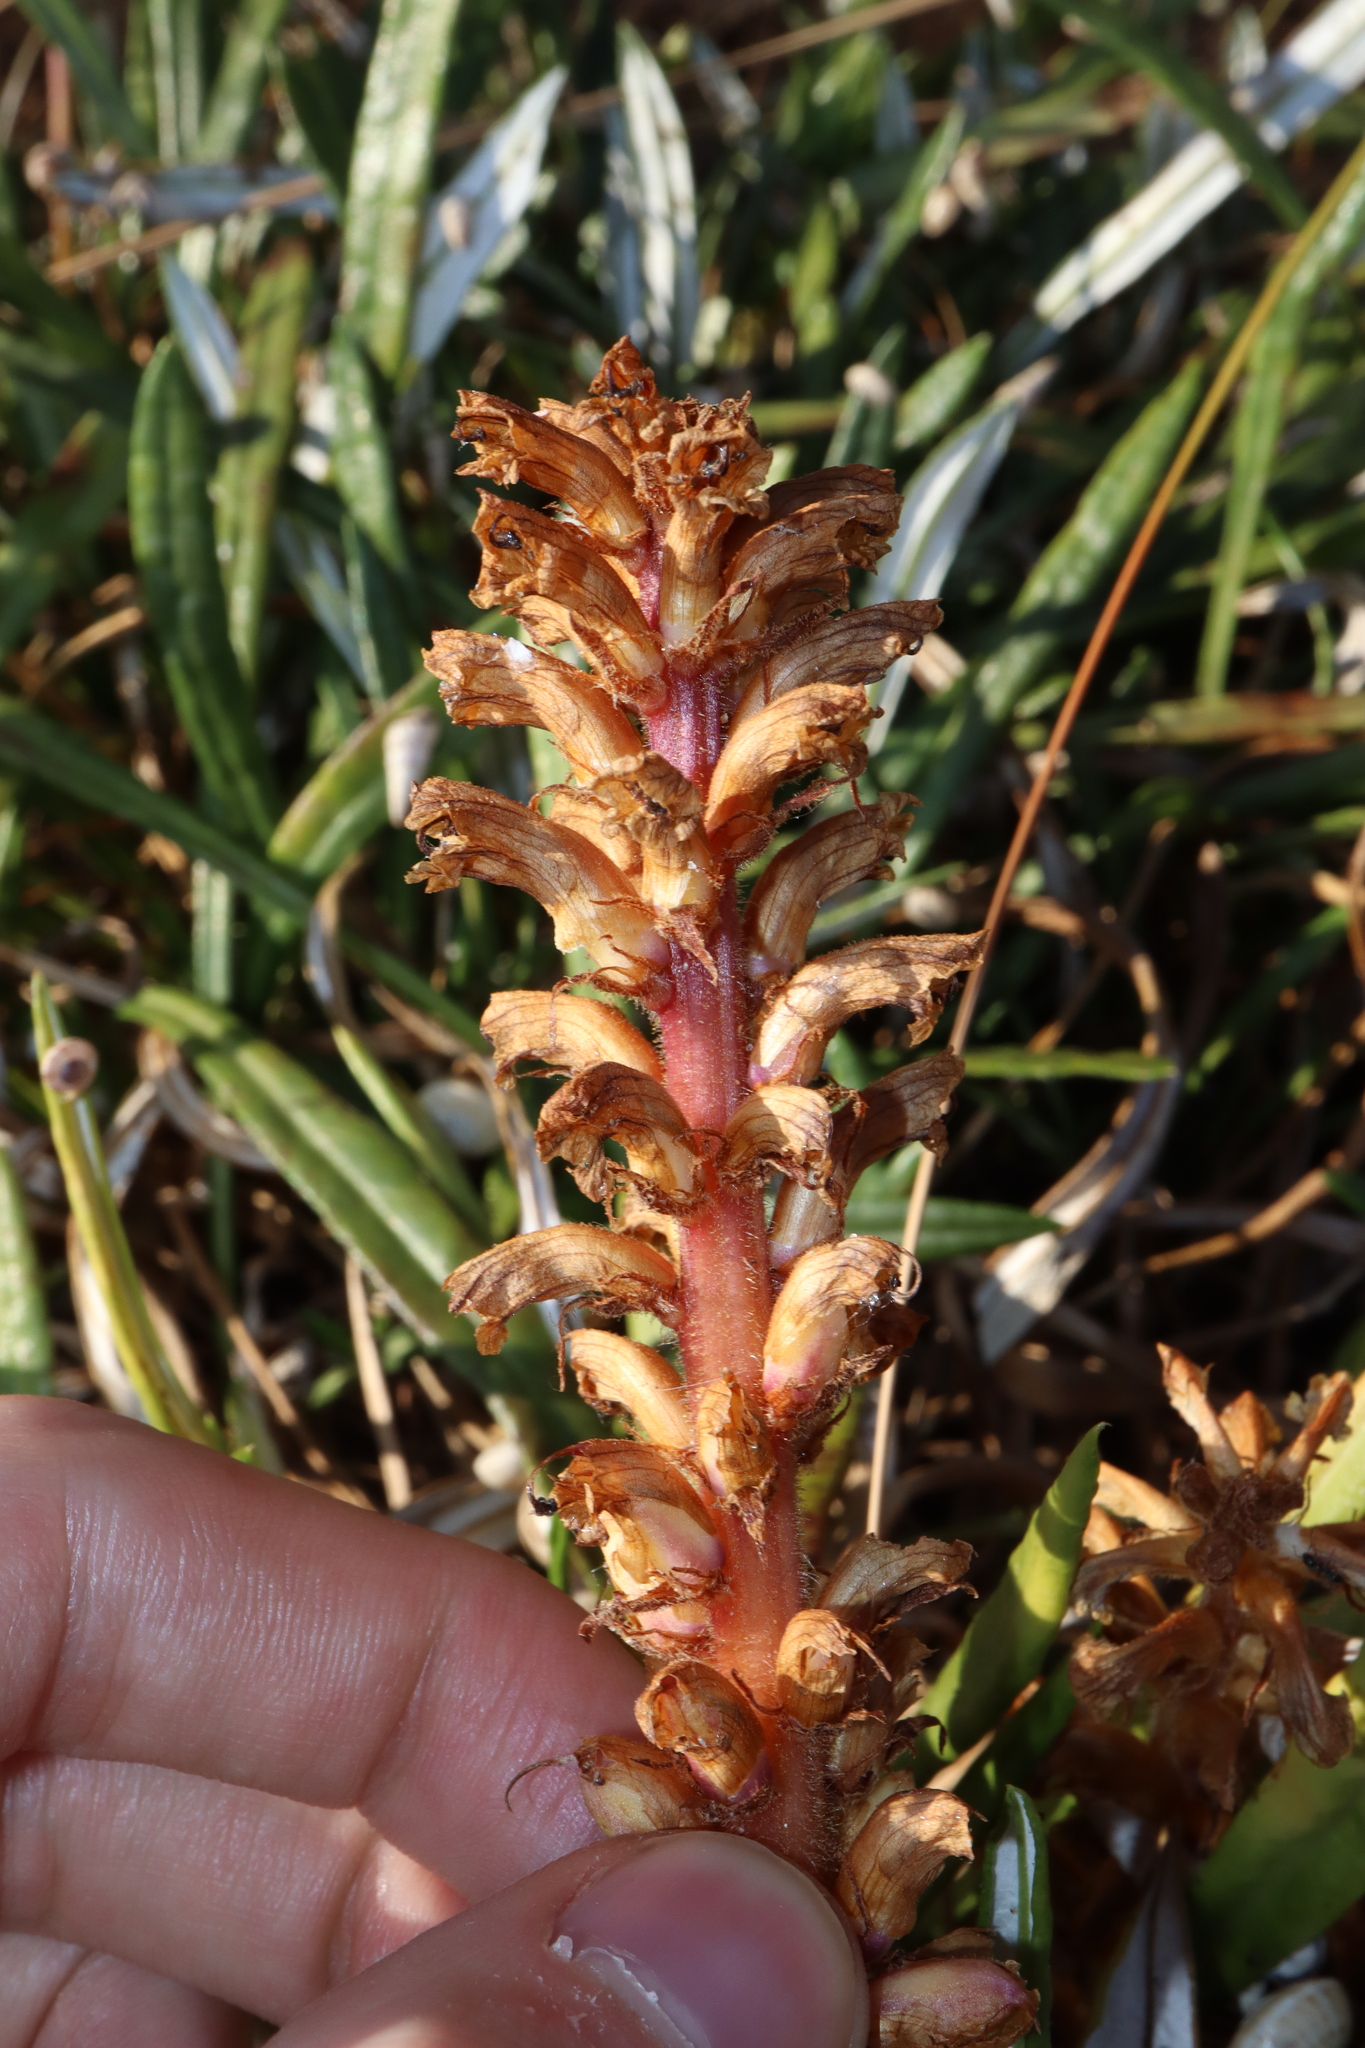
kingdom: Plantae
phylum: Tracheophyta
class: Magnoliopsida
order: Lamiales
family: Orobanchaceae
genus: Orobanche
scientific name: Orobanche minor
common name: Common broomrape
